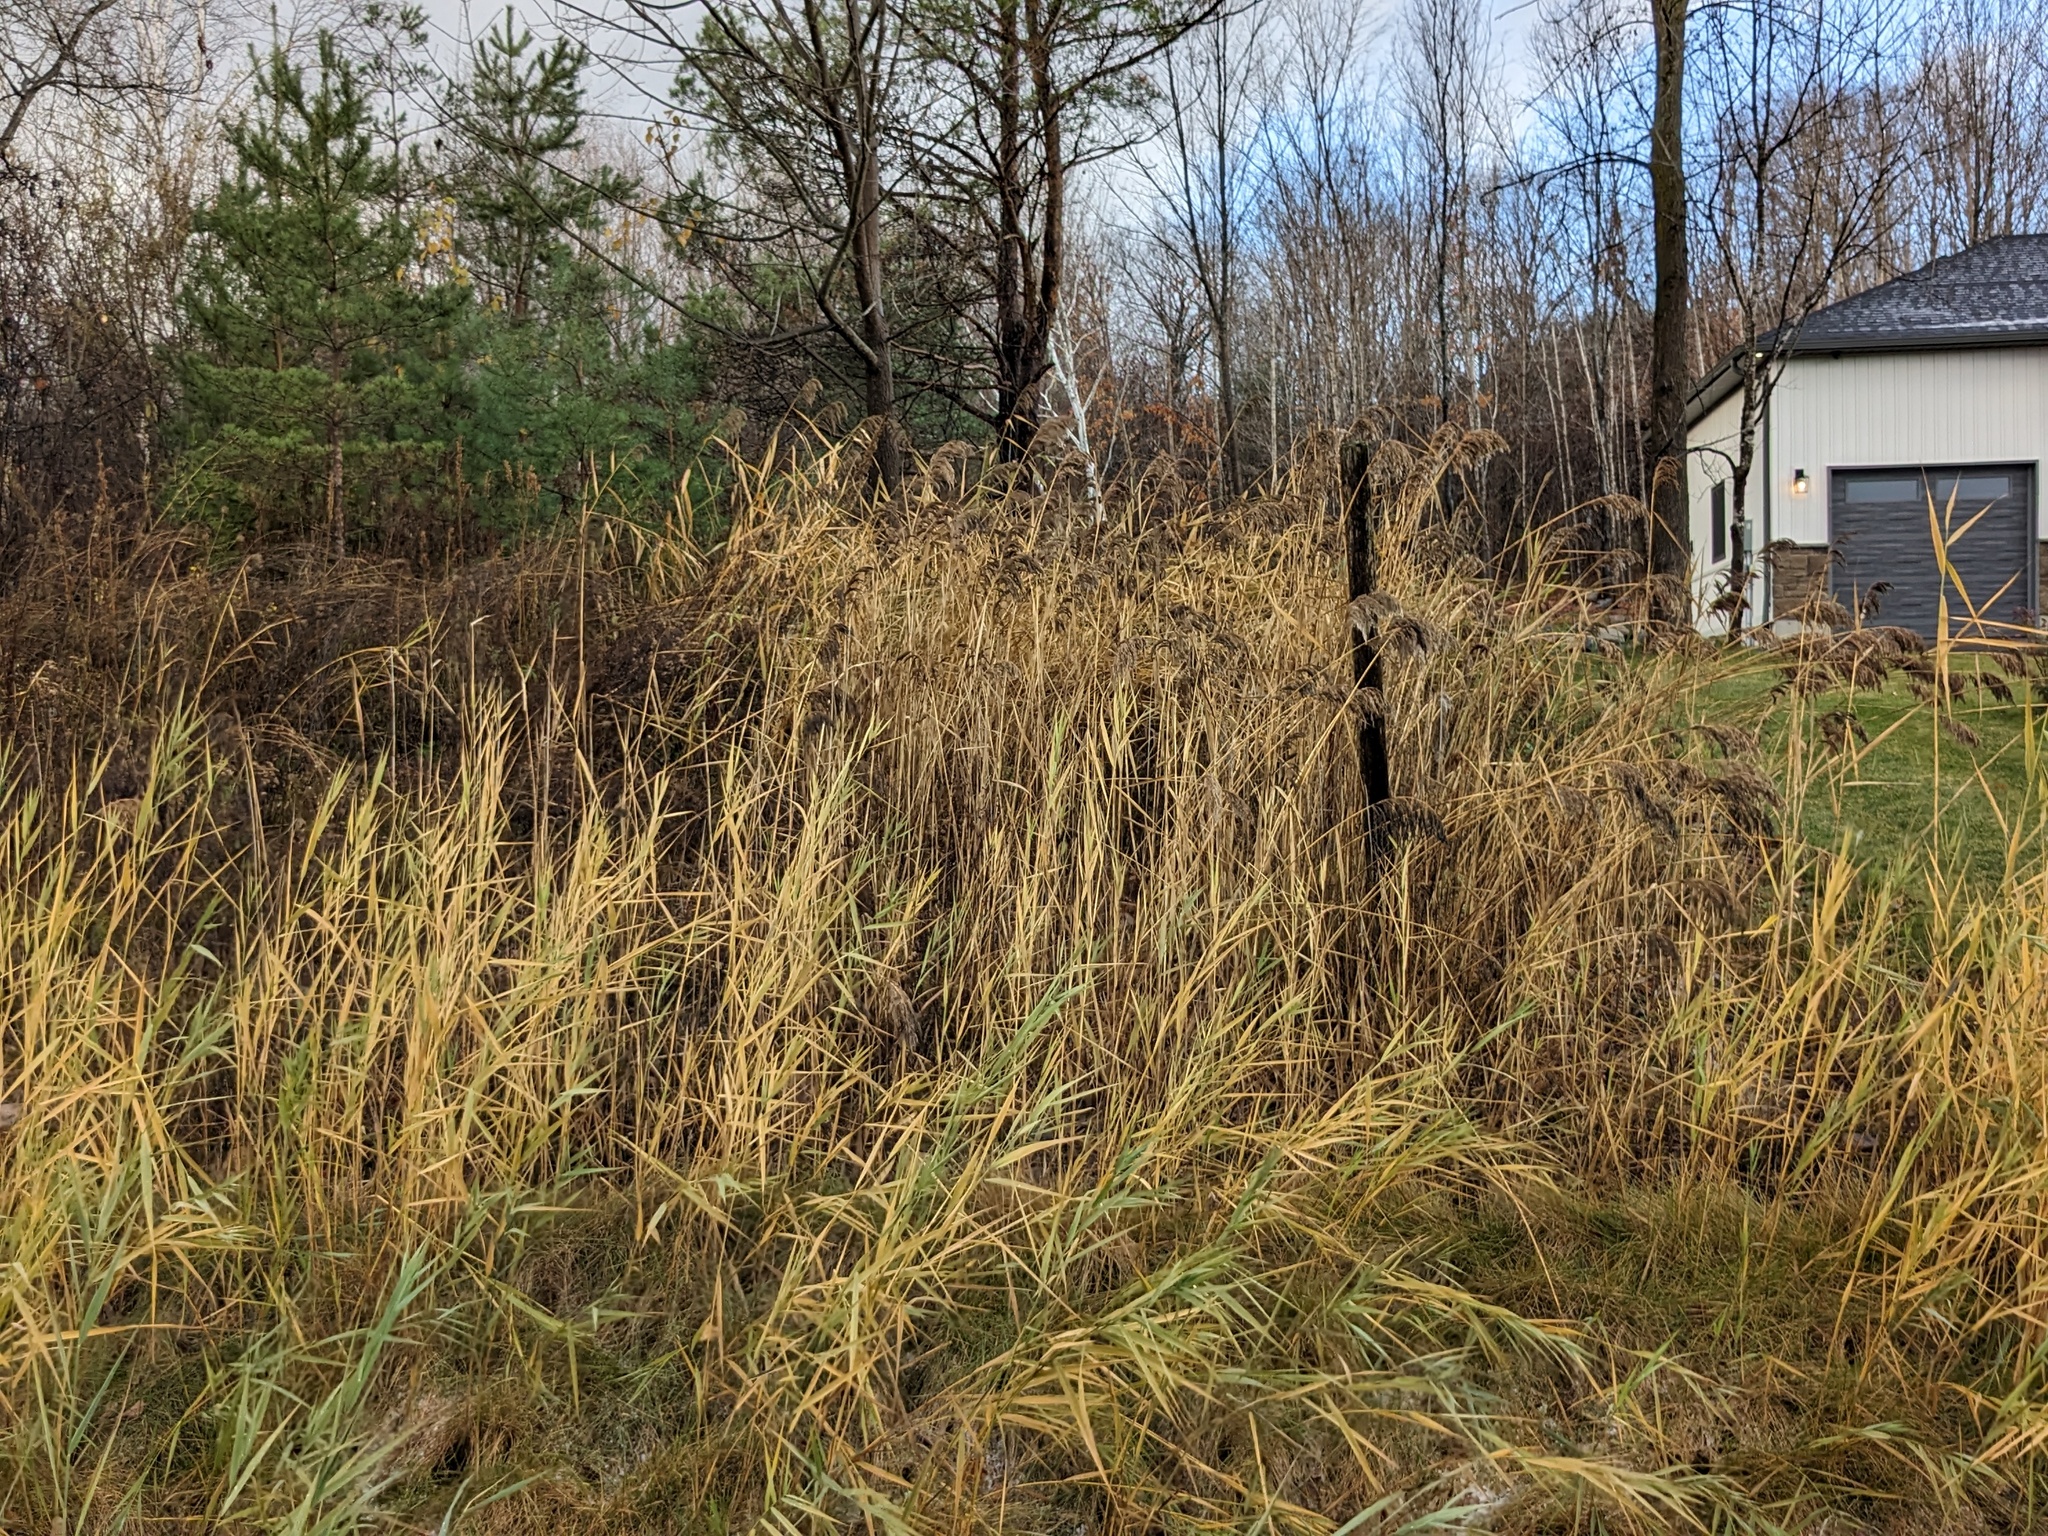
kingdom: Plantae
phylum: Tracheophyta
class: Liliopsida
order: Poales
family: Poaceae
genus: Phragmites
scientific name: Phragmites australis
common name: Common reed
